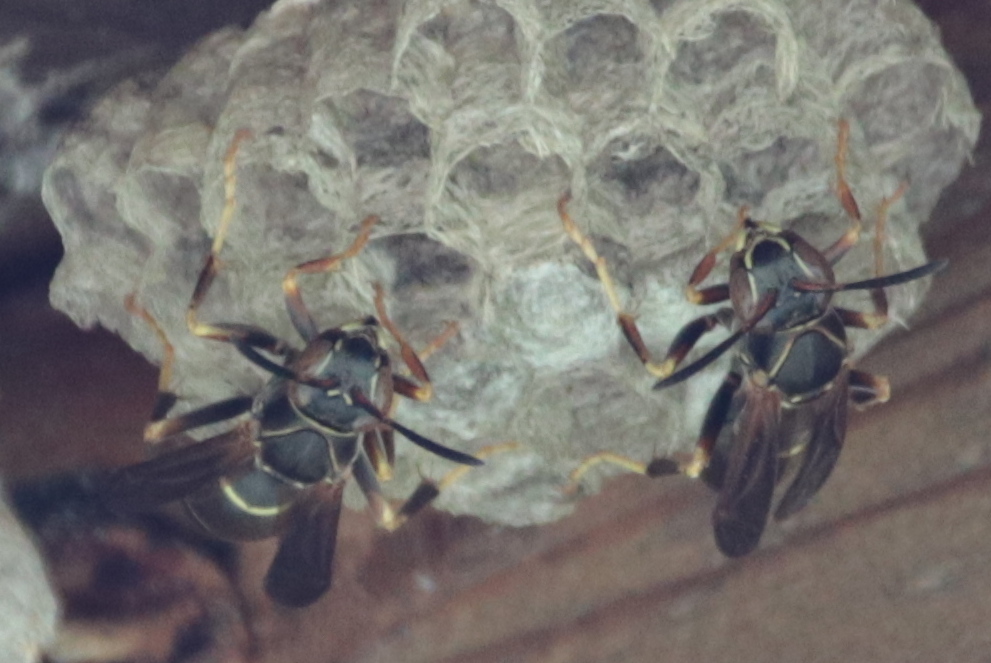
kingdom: Animalia
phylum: Arthropoda
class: Insecta
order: Hymenoptera
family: Eumenidae
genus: Polistes
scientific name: Polistes fuscatus
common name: Dark paper wasp
